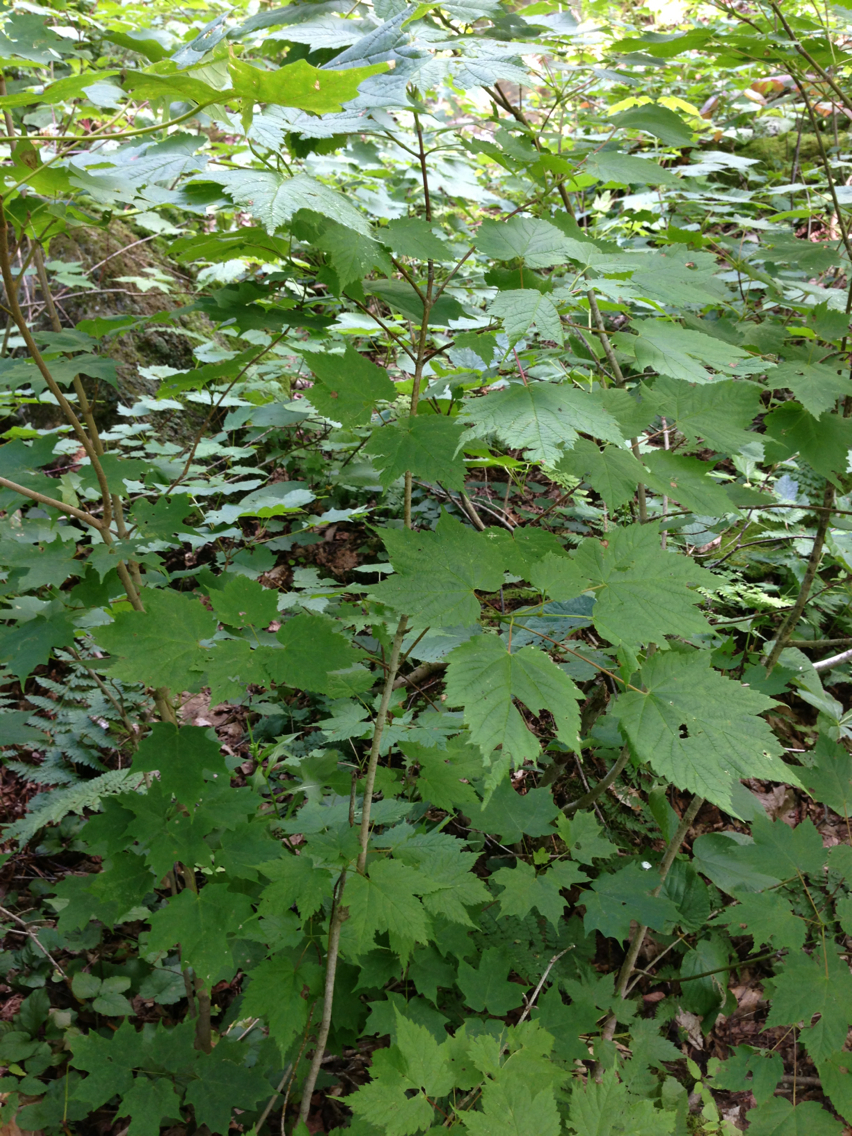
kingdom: Plantae
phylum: Tracheophyta
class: Magnoliopsida
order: Sapindales
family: Sapindaceae
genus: Acer
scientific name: Acer spicatum
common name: Mountain maple
